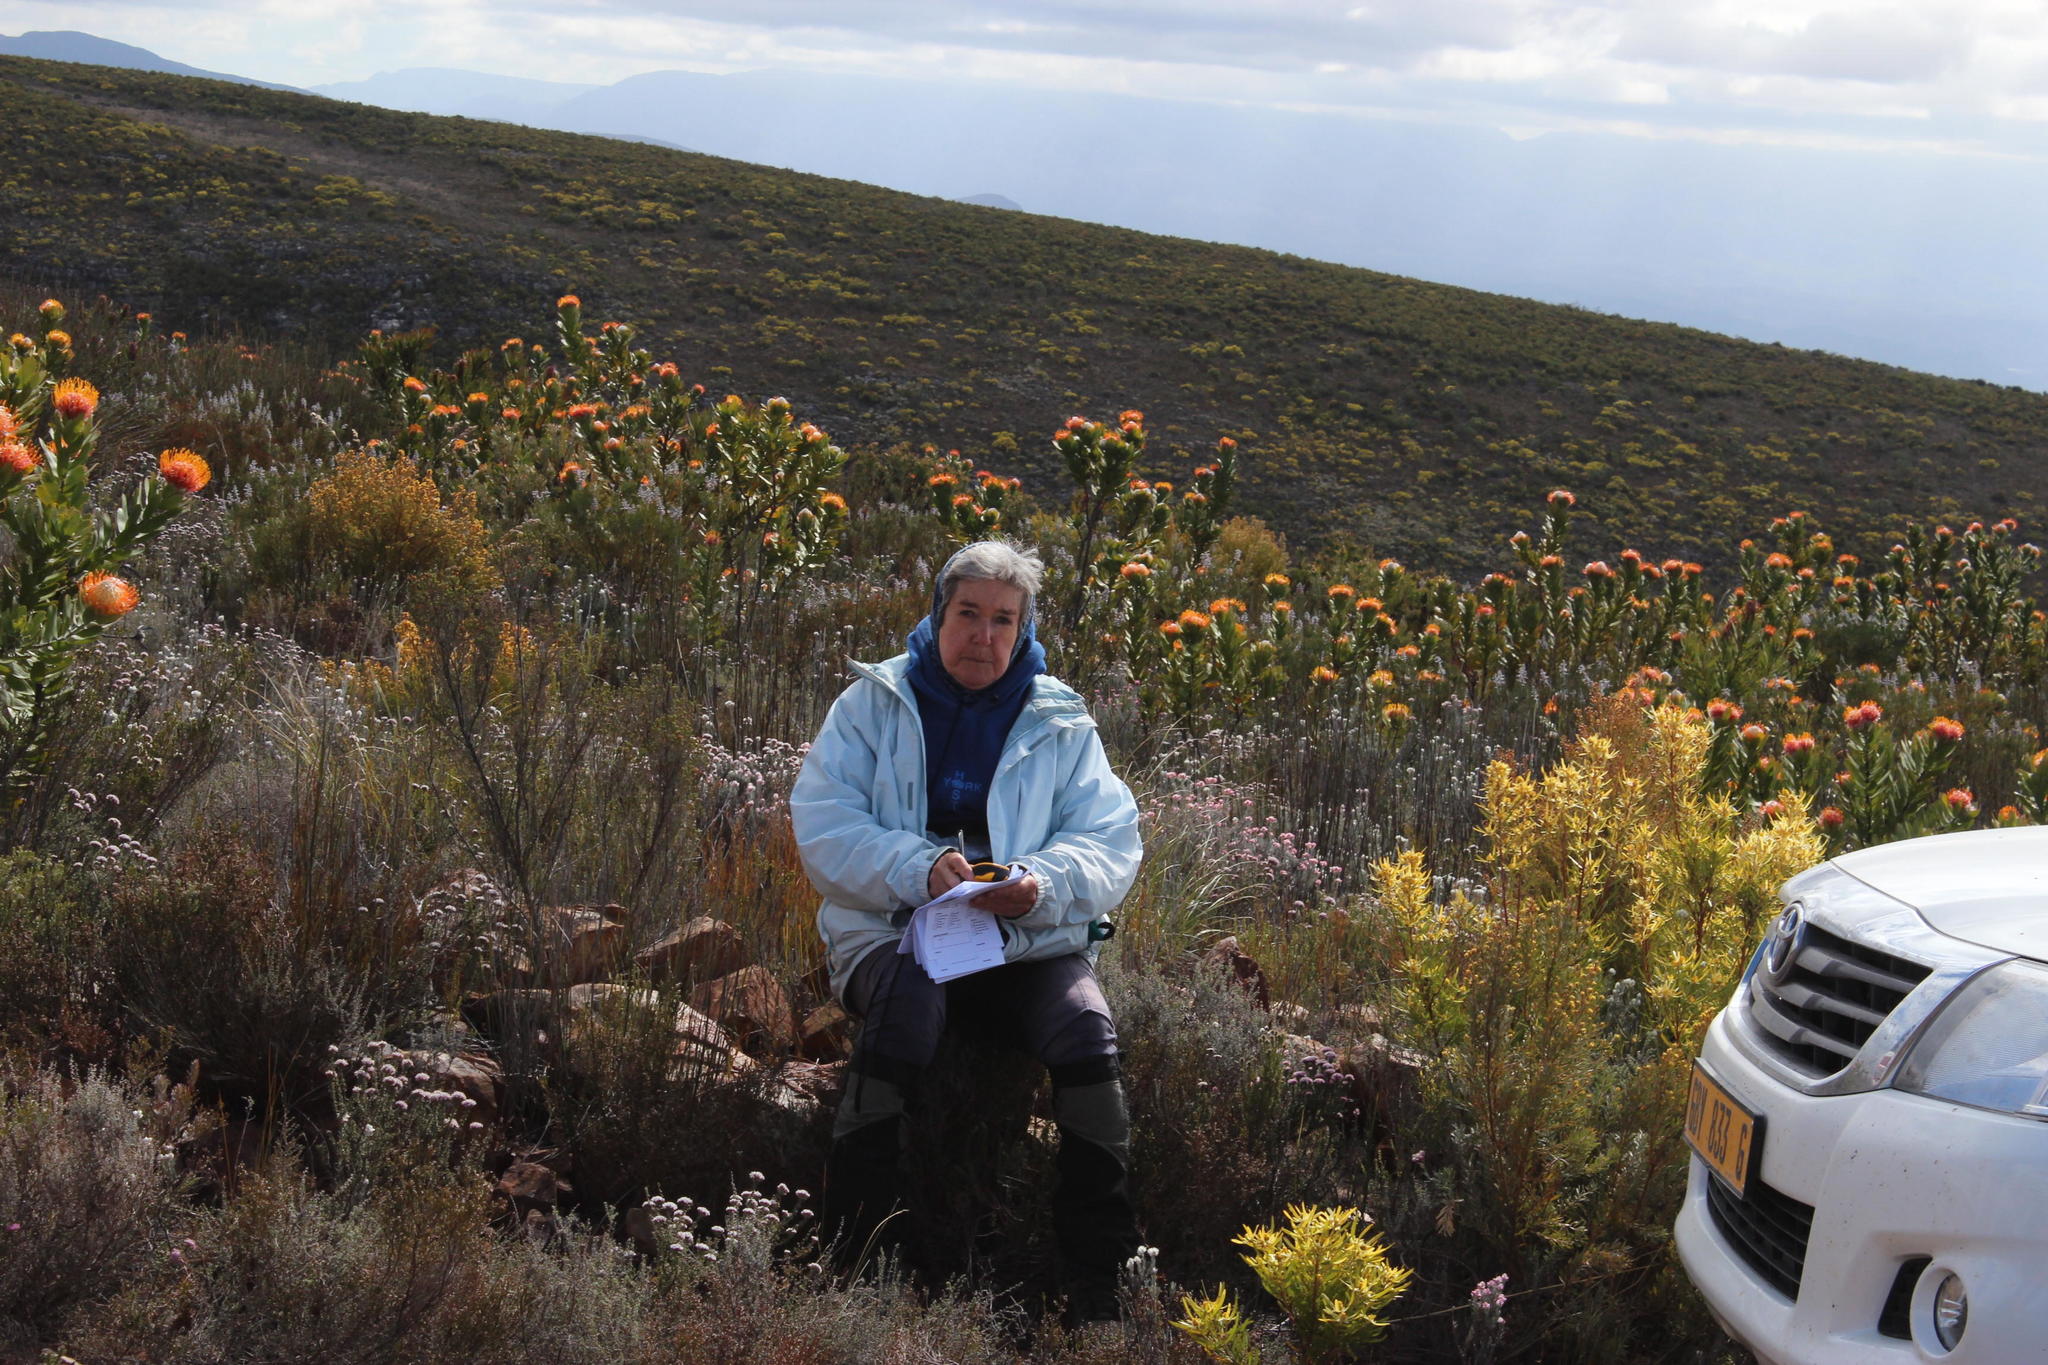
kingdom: Plantae
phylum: Tracheophyta
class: Magnoliopsida
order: Proteales
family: Proteaceae
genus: Leucospermum
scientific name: Leucospermum pluridens
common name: Robinson pincushion
